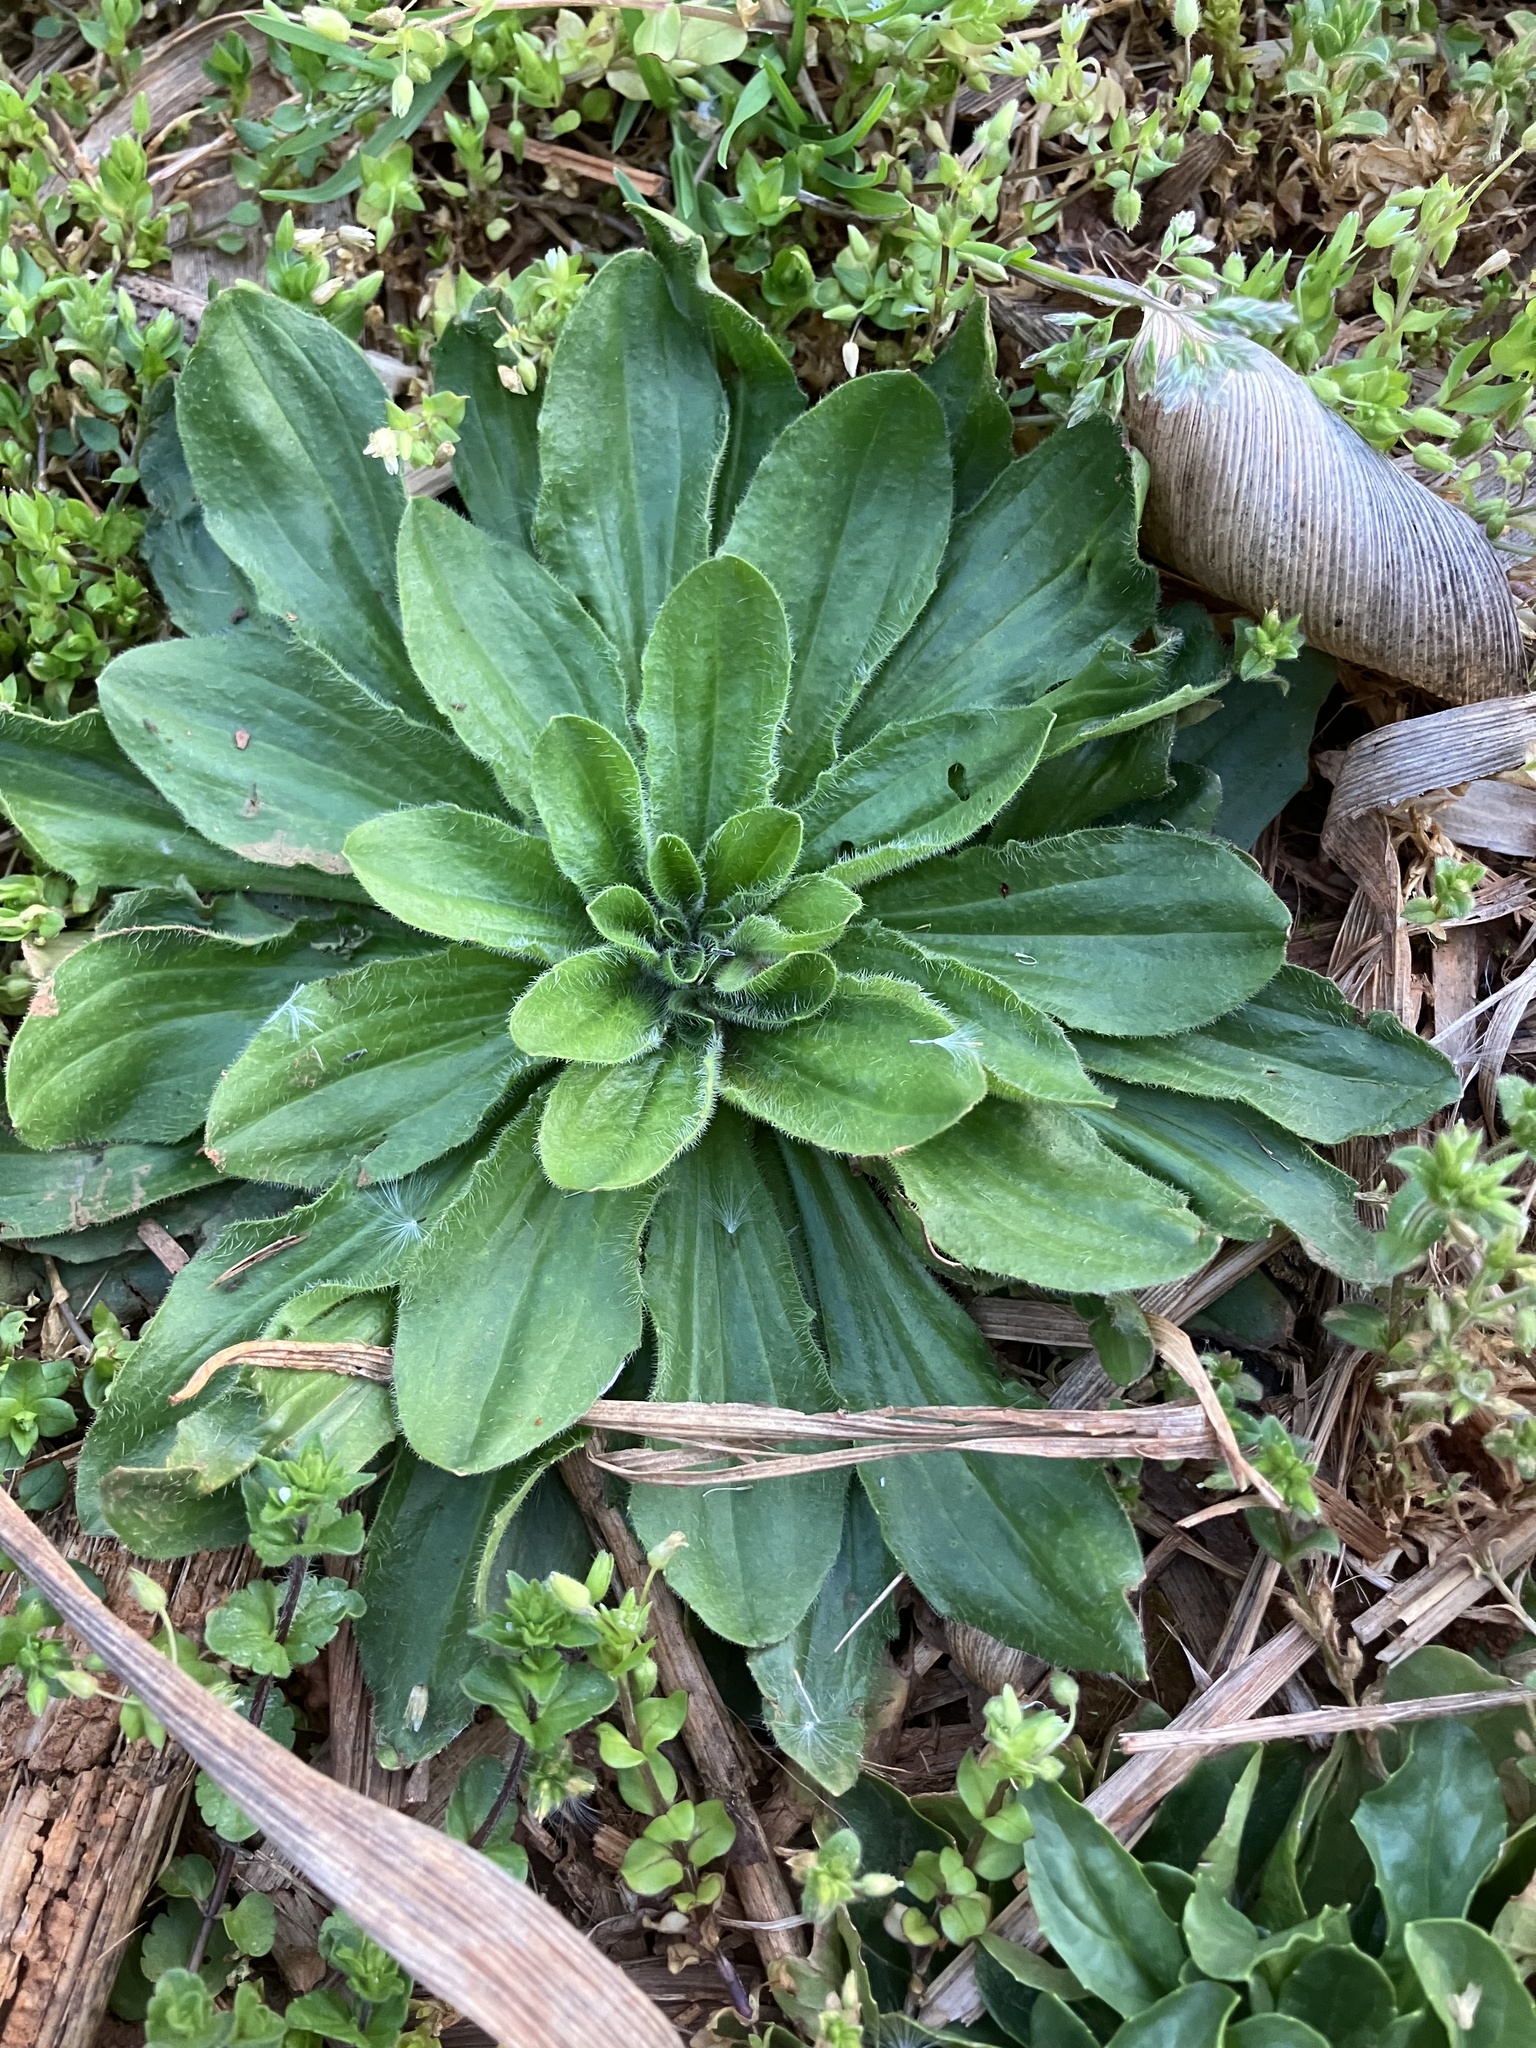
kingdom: Plantae
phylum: Tracheophyta
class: Magnoliopsida
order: Lamiales
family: Plantaginaceae
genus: Plantago
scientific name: Plantago virginica
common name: Hoary plantain
